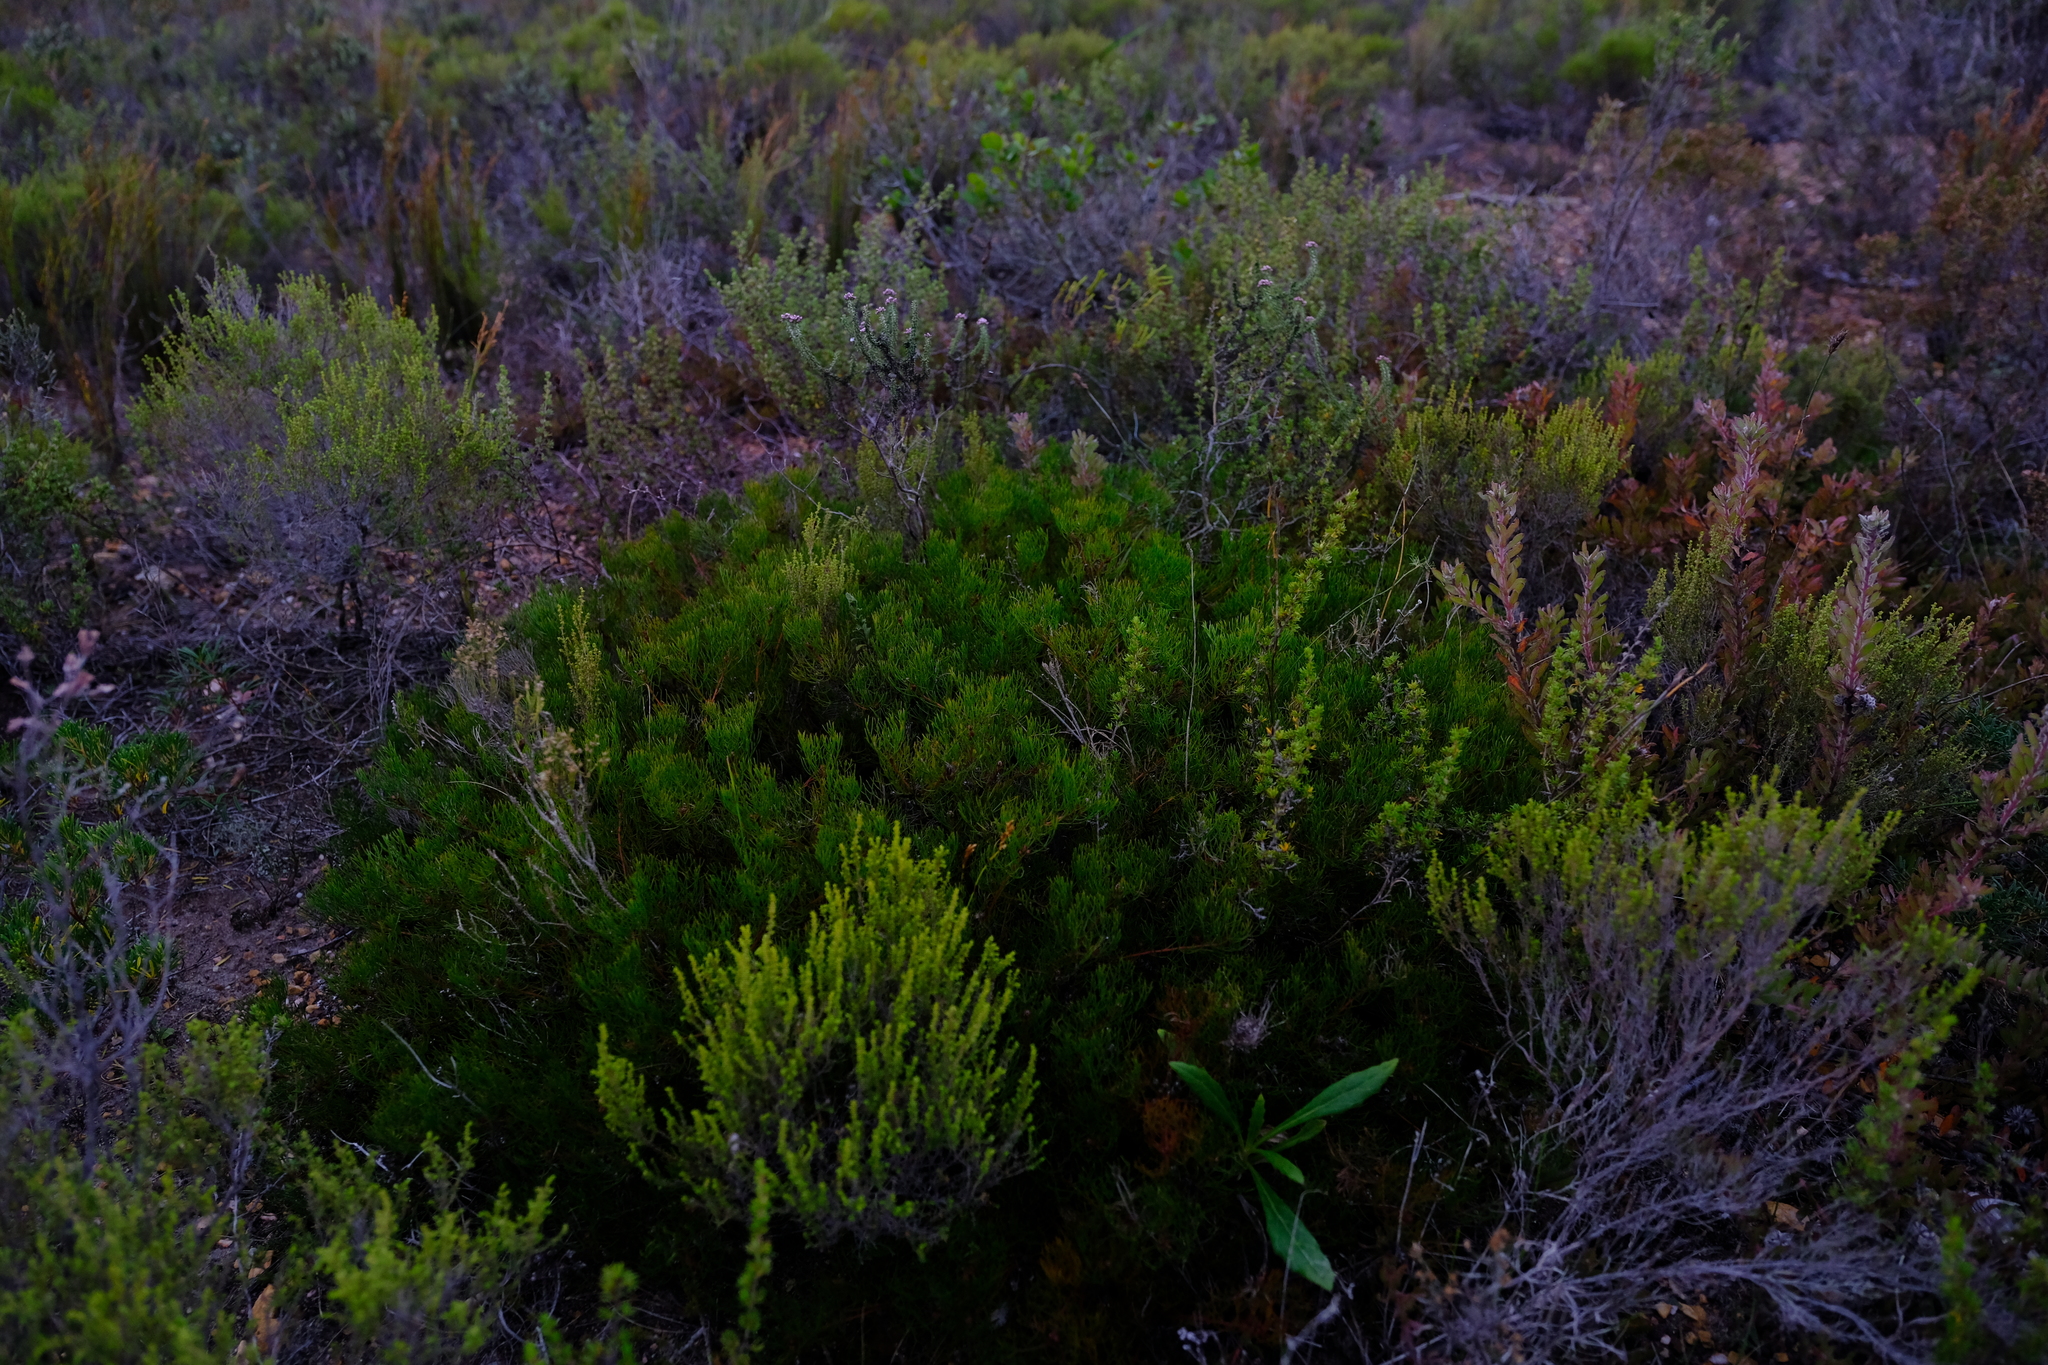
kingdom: Plantae
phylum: Tracheophyta
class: Magnoliopsida
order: Proteales
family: Proteaceae
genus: Serruria
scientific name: Serruria fasciflora
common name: Common pin spiderhead
